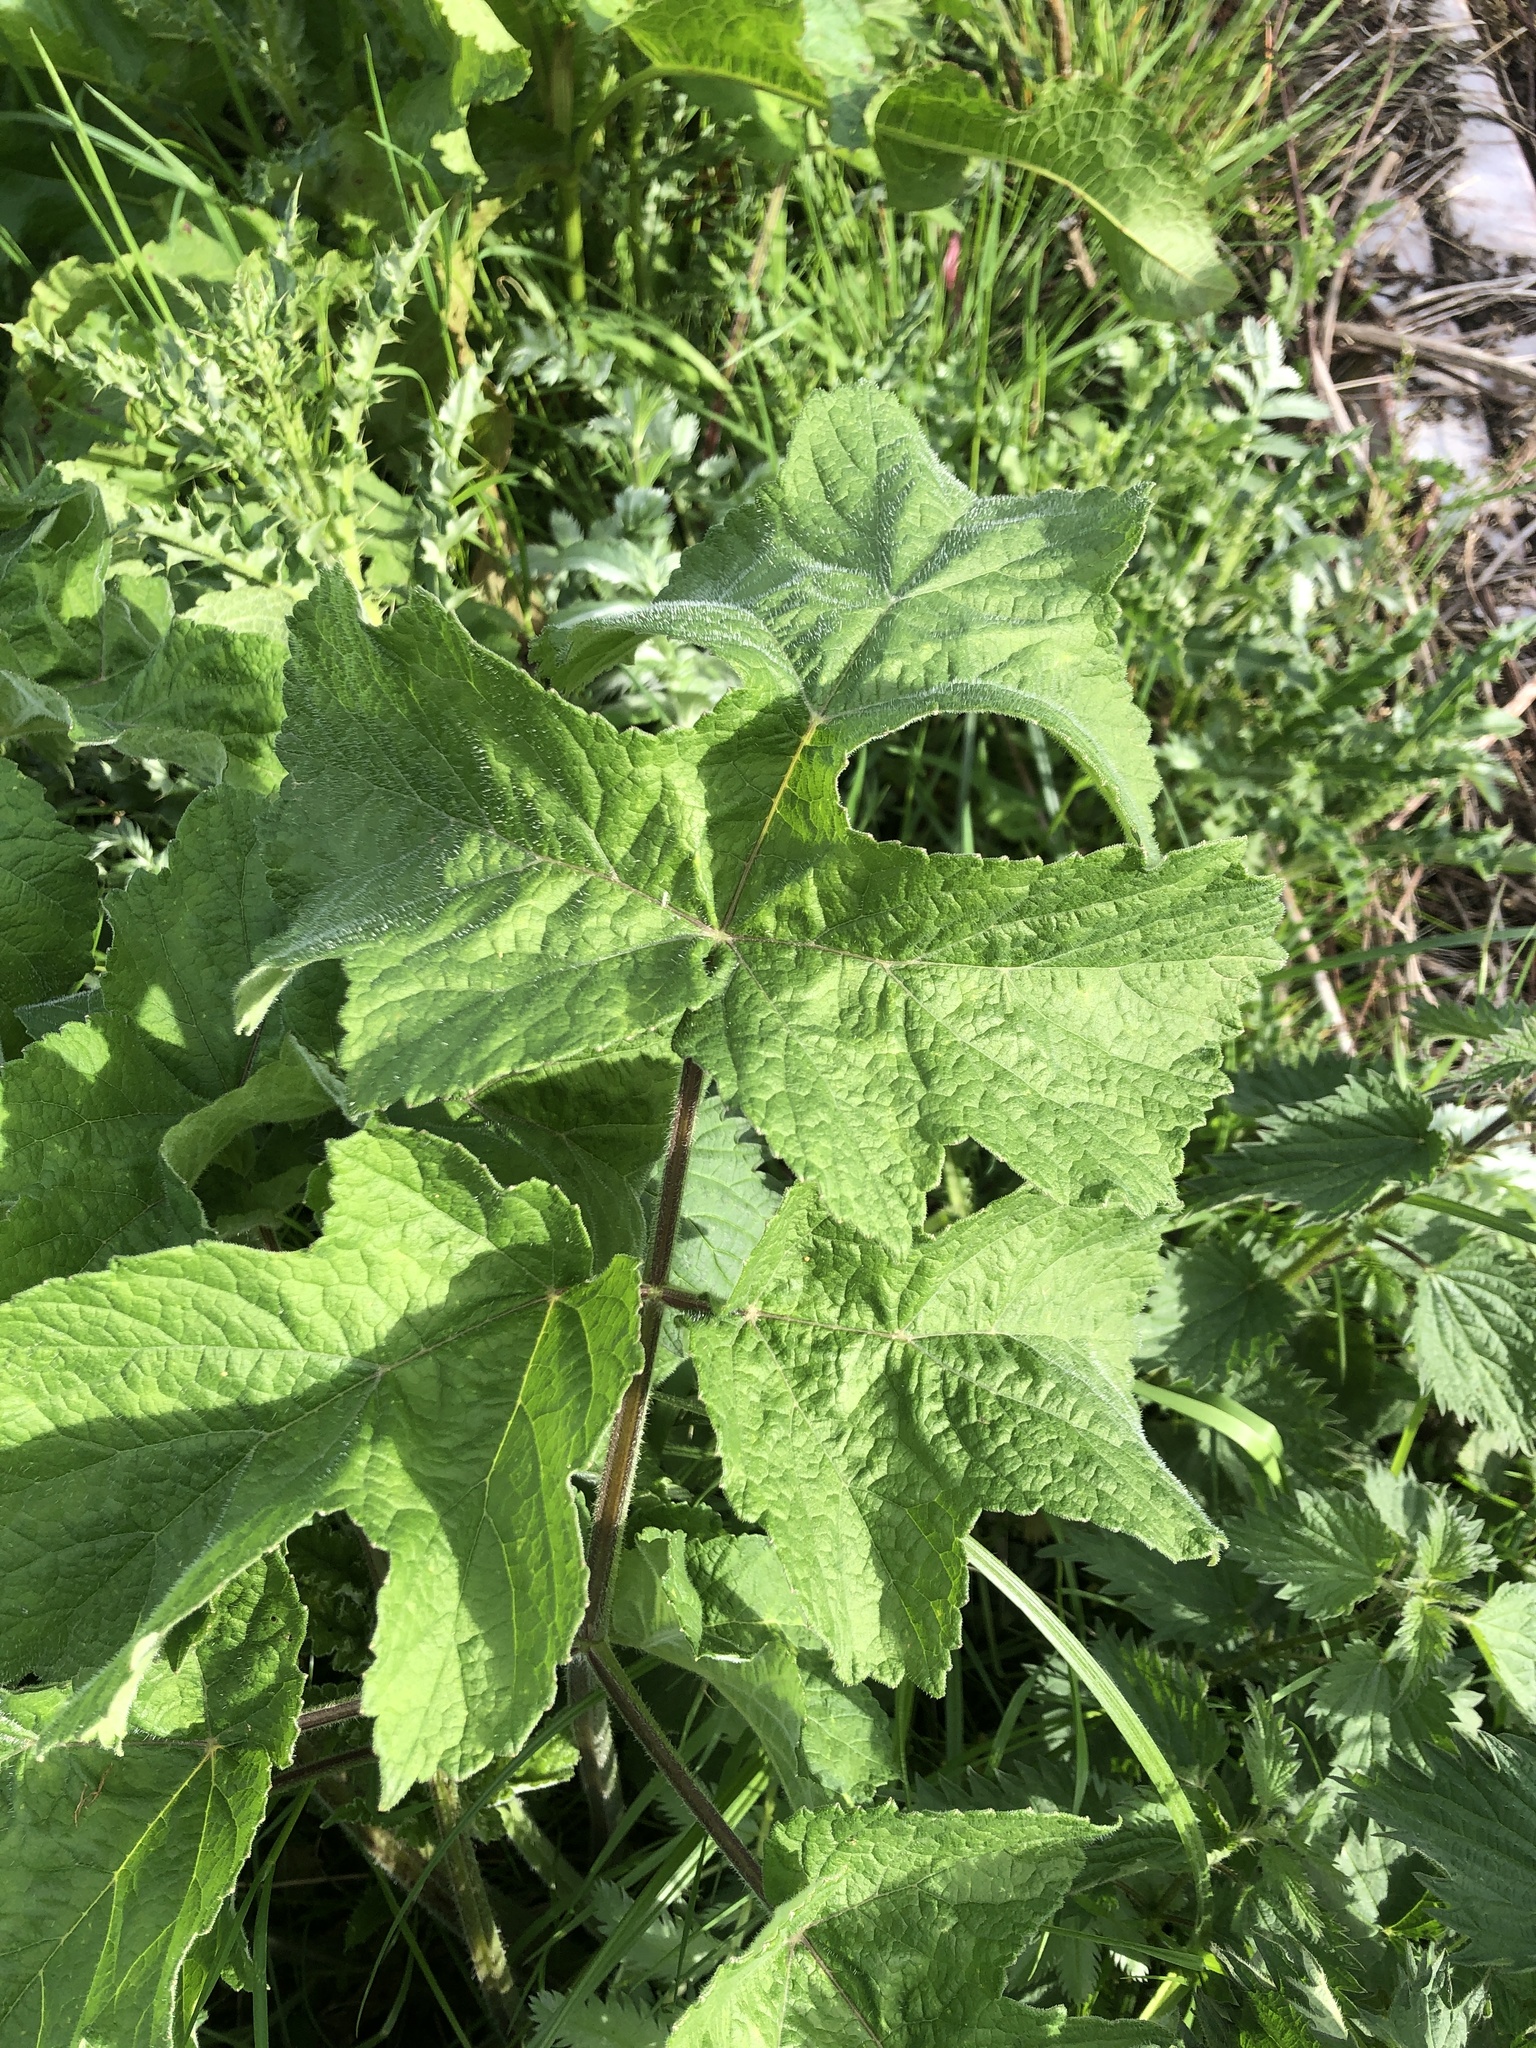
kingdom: Plantae
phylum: Tracheophyta
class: Magnoliopsida
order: Apiales
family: Apiaceae
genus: Heracleum
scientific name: Heracleum sphondylium
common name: Hogweed
